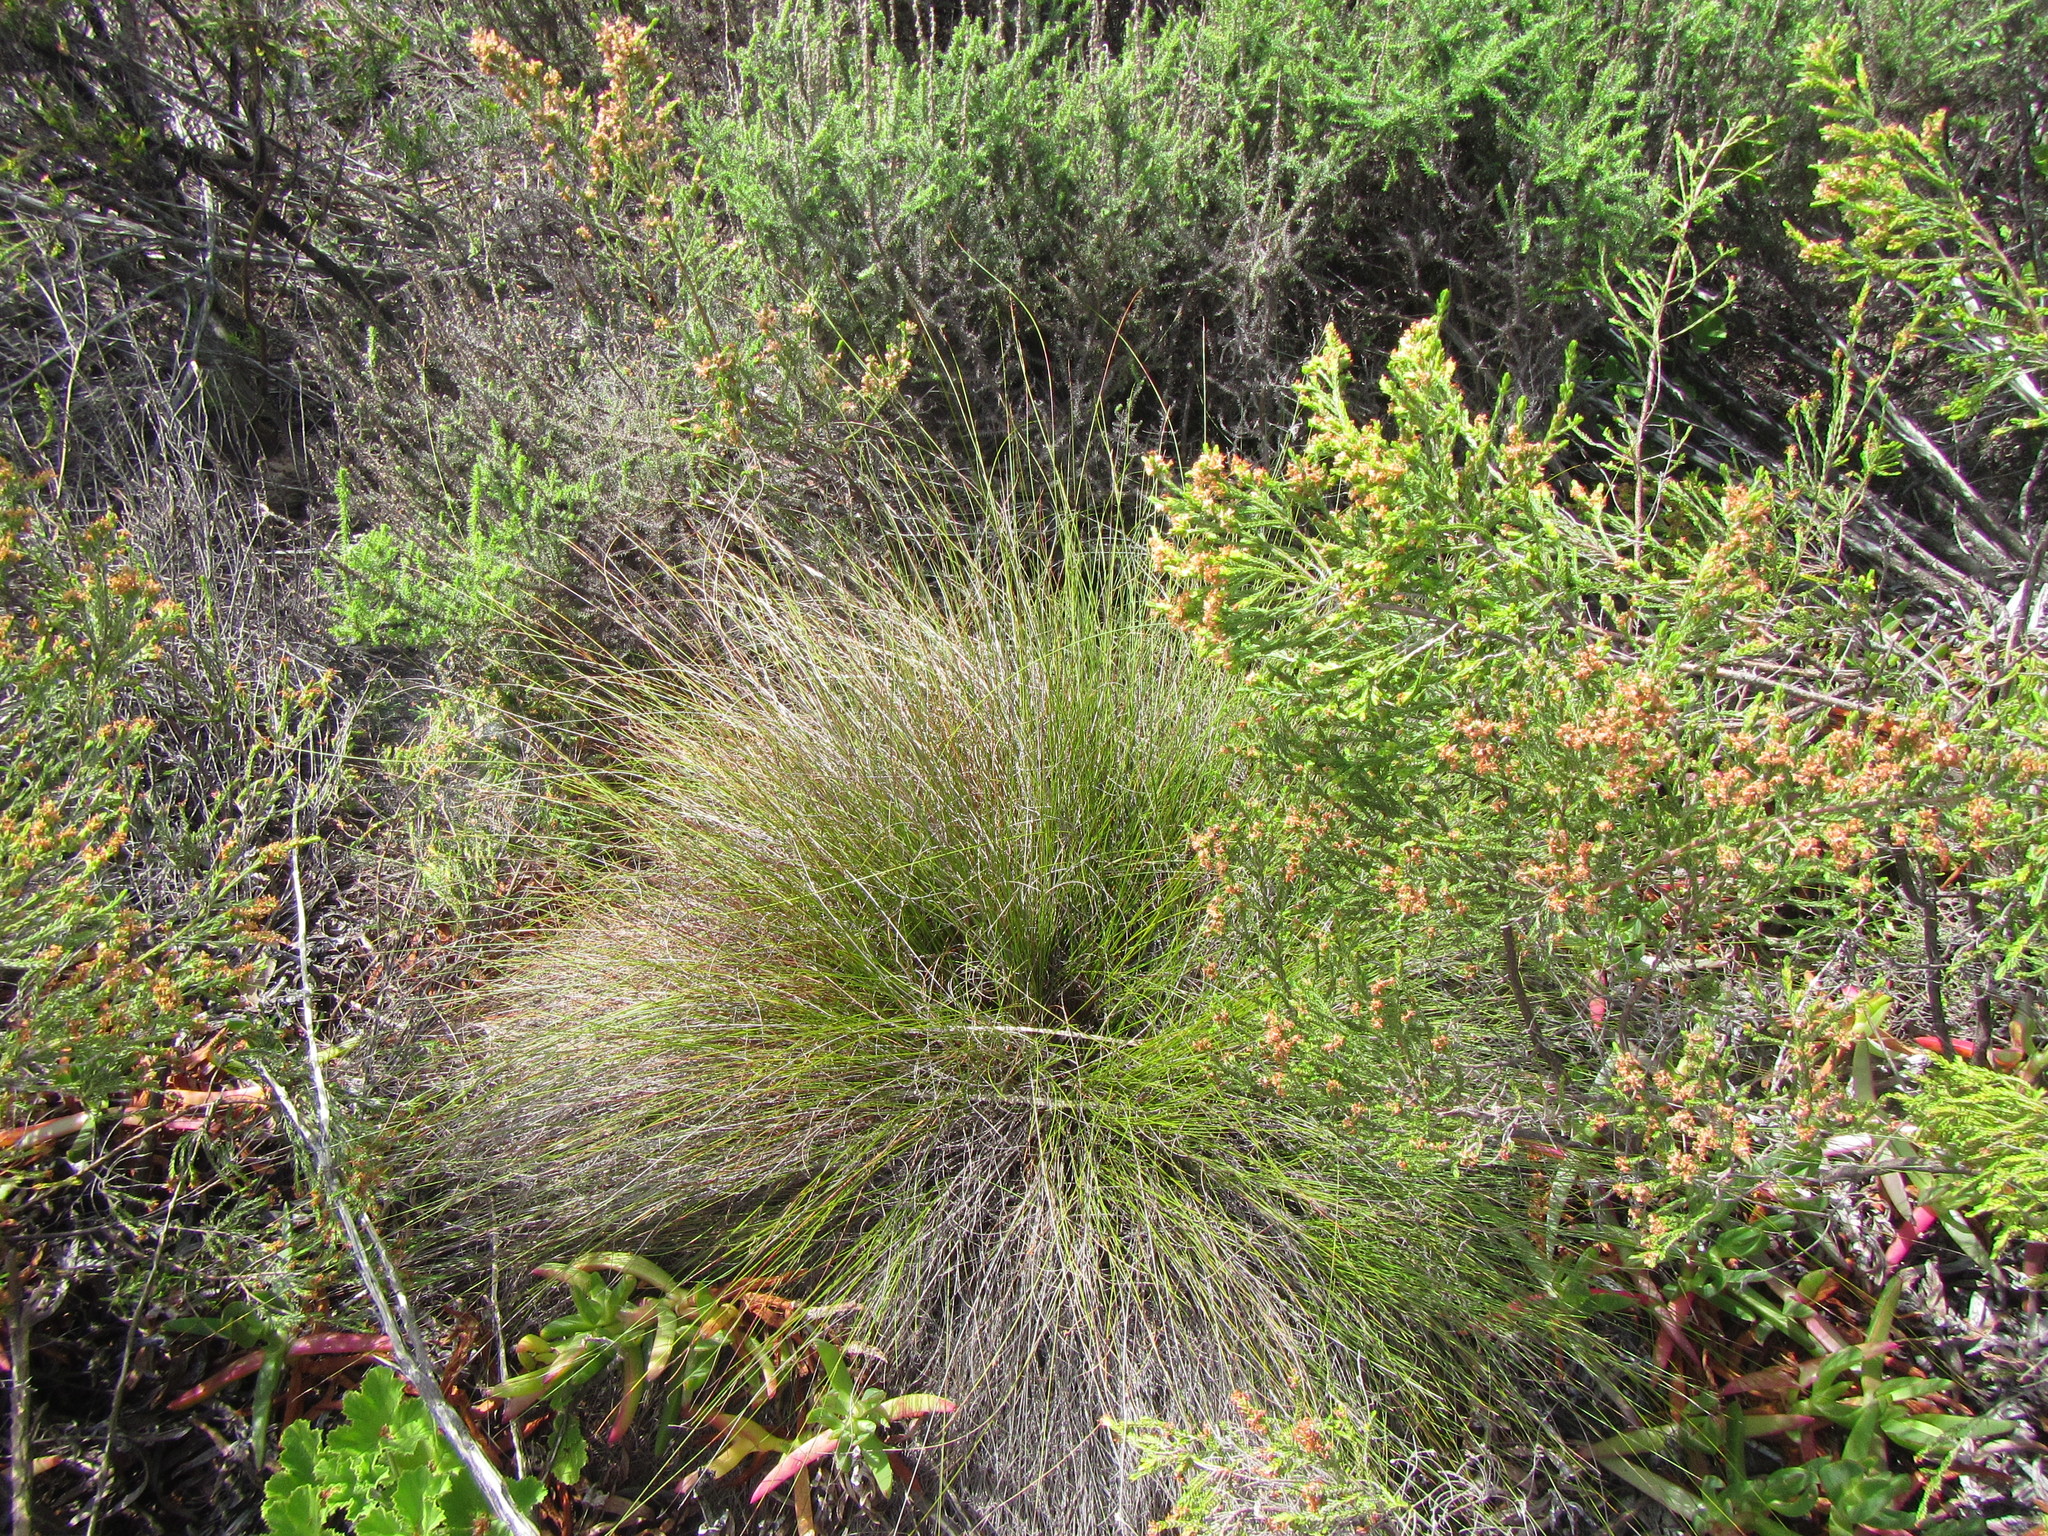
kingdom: Plantae
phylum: Tracheophyta
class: Liliopsida
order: Poales
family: Cyperaceae
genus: Schoenus
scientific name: Schoenus inconspicuus
